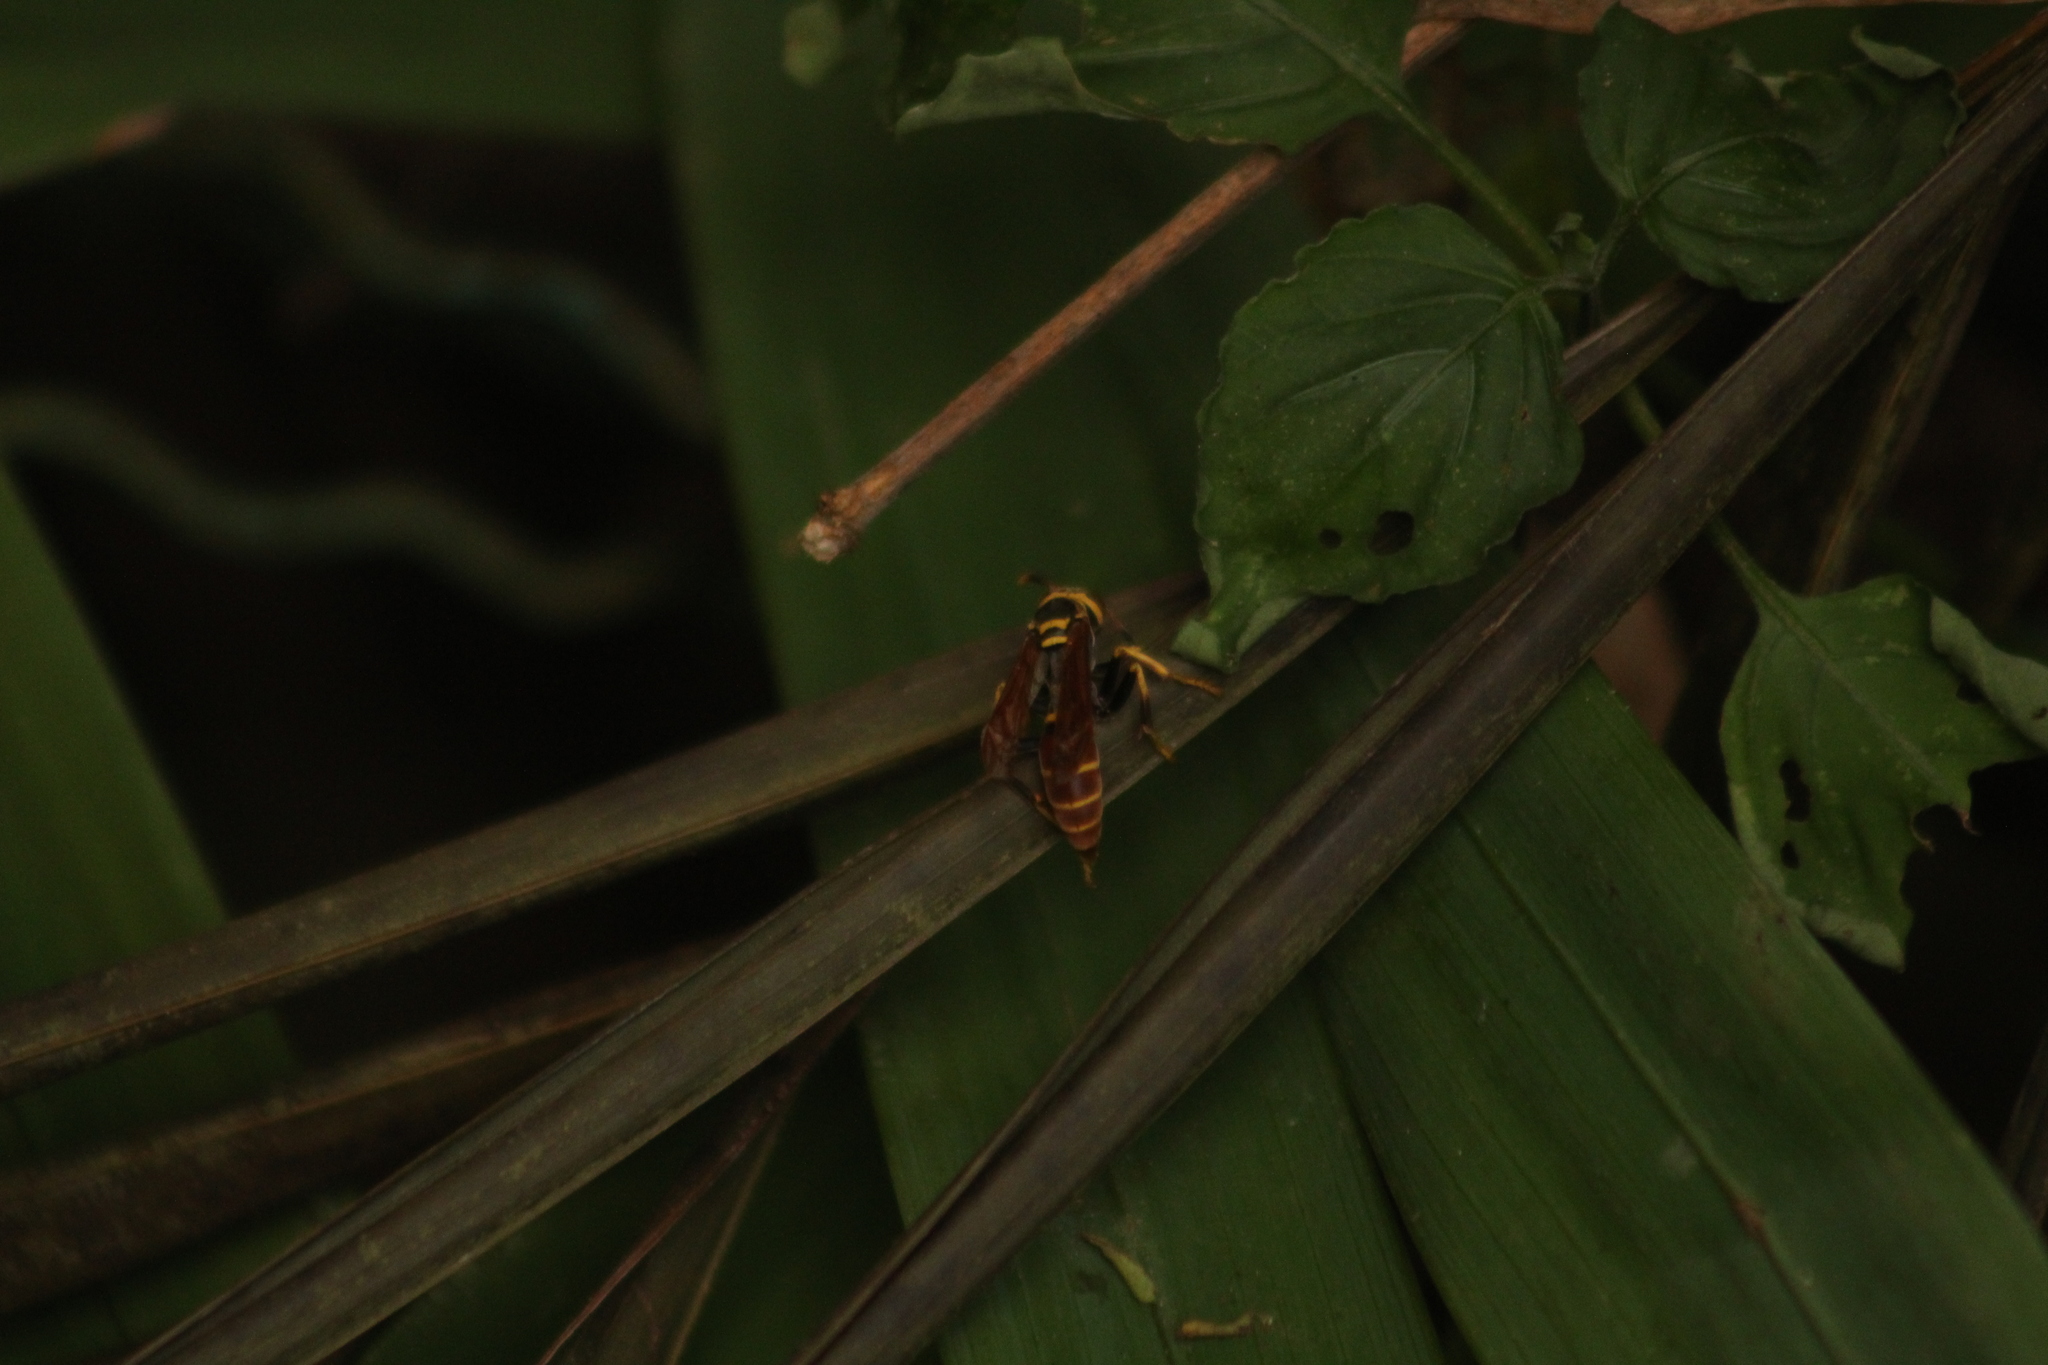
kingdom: Animalia
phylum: Arthropoda
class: Insecta
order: Hymenoptera
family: Eumenidae
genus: Polistes
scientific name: Polistes crinitus
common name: Jack spaniard
